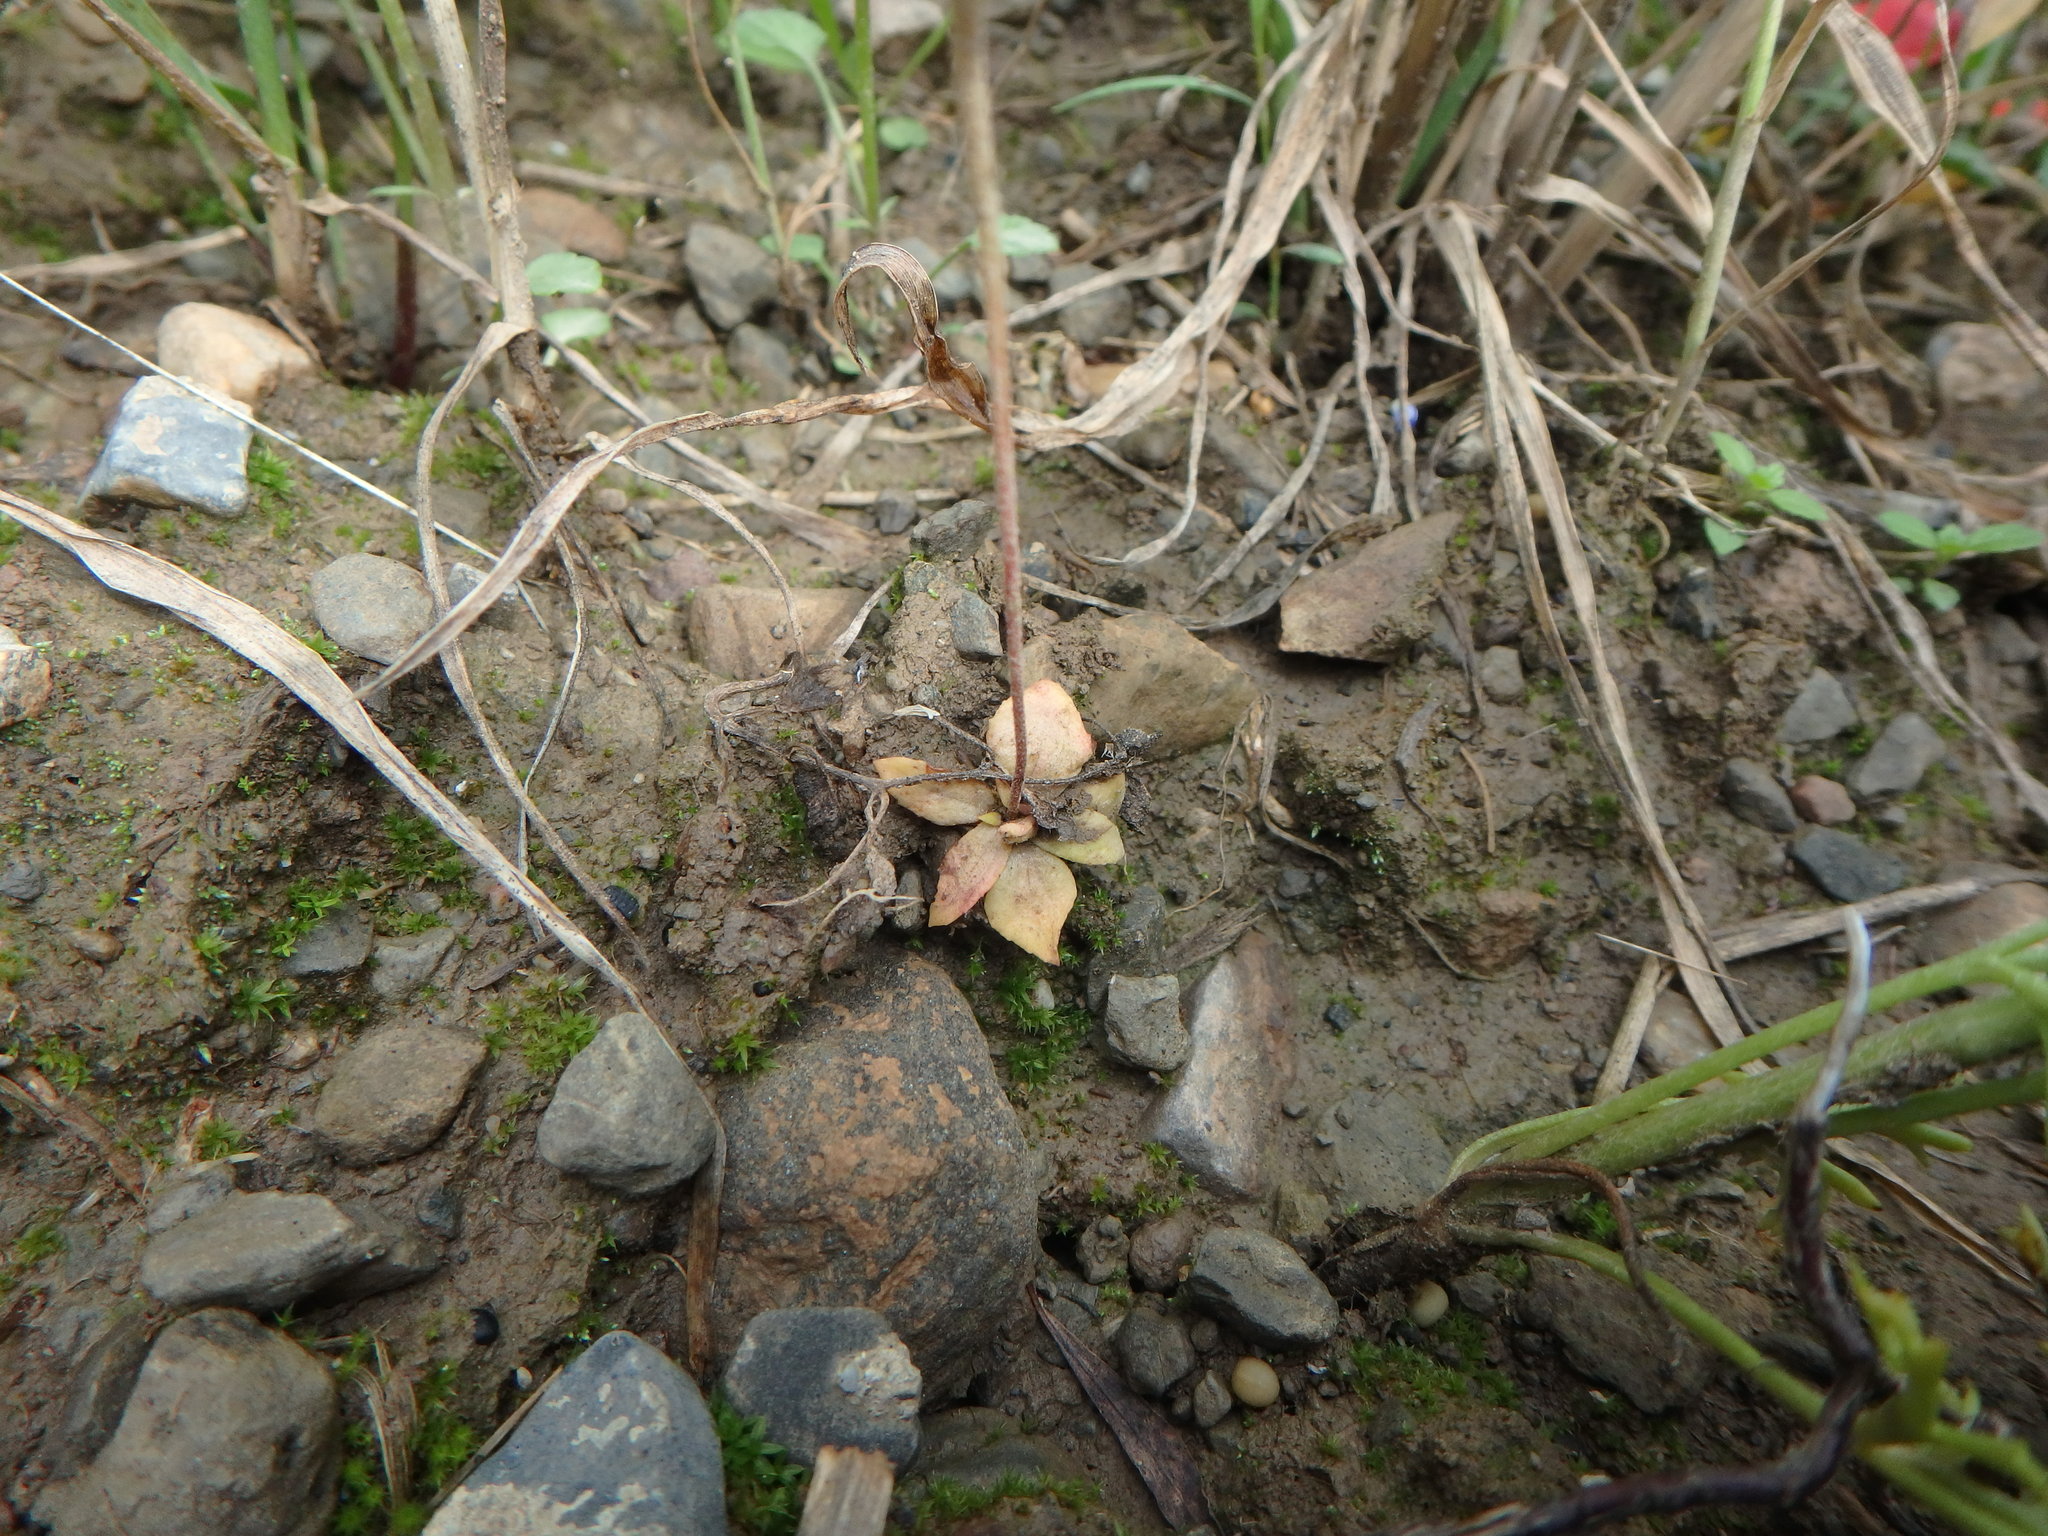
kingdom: Plantae
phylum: Tracheophyta
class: Magnoliopsida
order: Ericales
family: Primulaceae
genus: Androsace
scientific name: Androsace maxima
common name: Annual androsace
